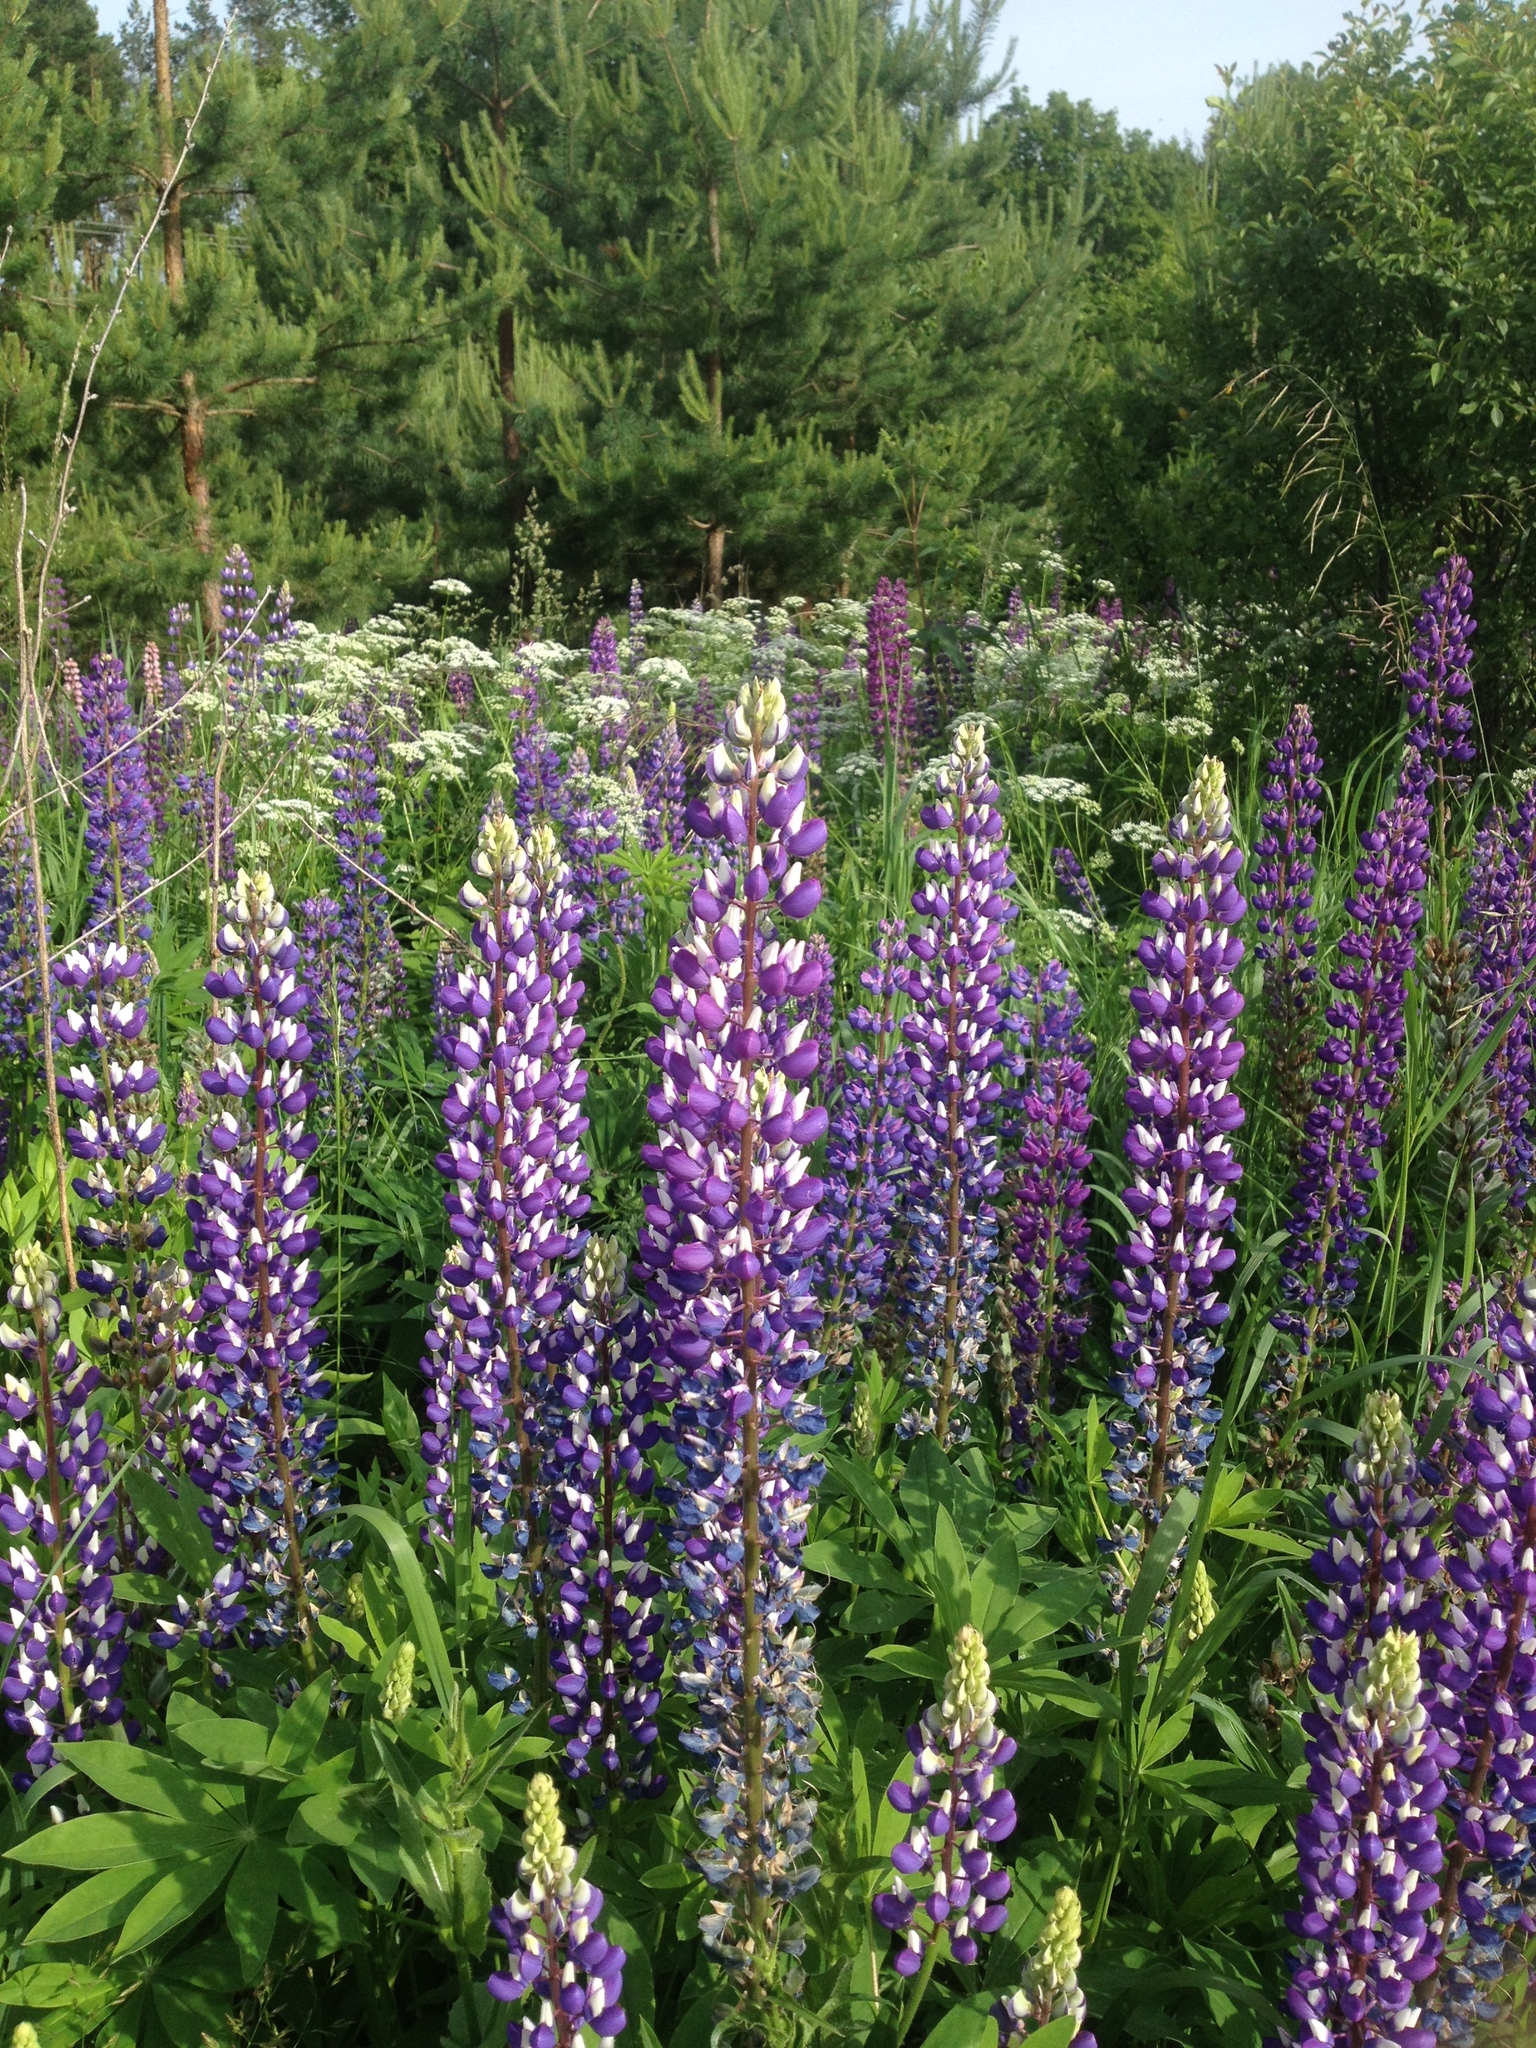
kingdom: Plantae
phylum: Tracheophyta
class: Magnoliopsida
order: Fabales
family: Fabaceae
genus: Lupinus
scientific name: Lupinus polyphyllus
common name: Garden lupin
